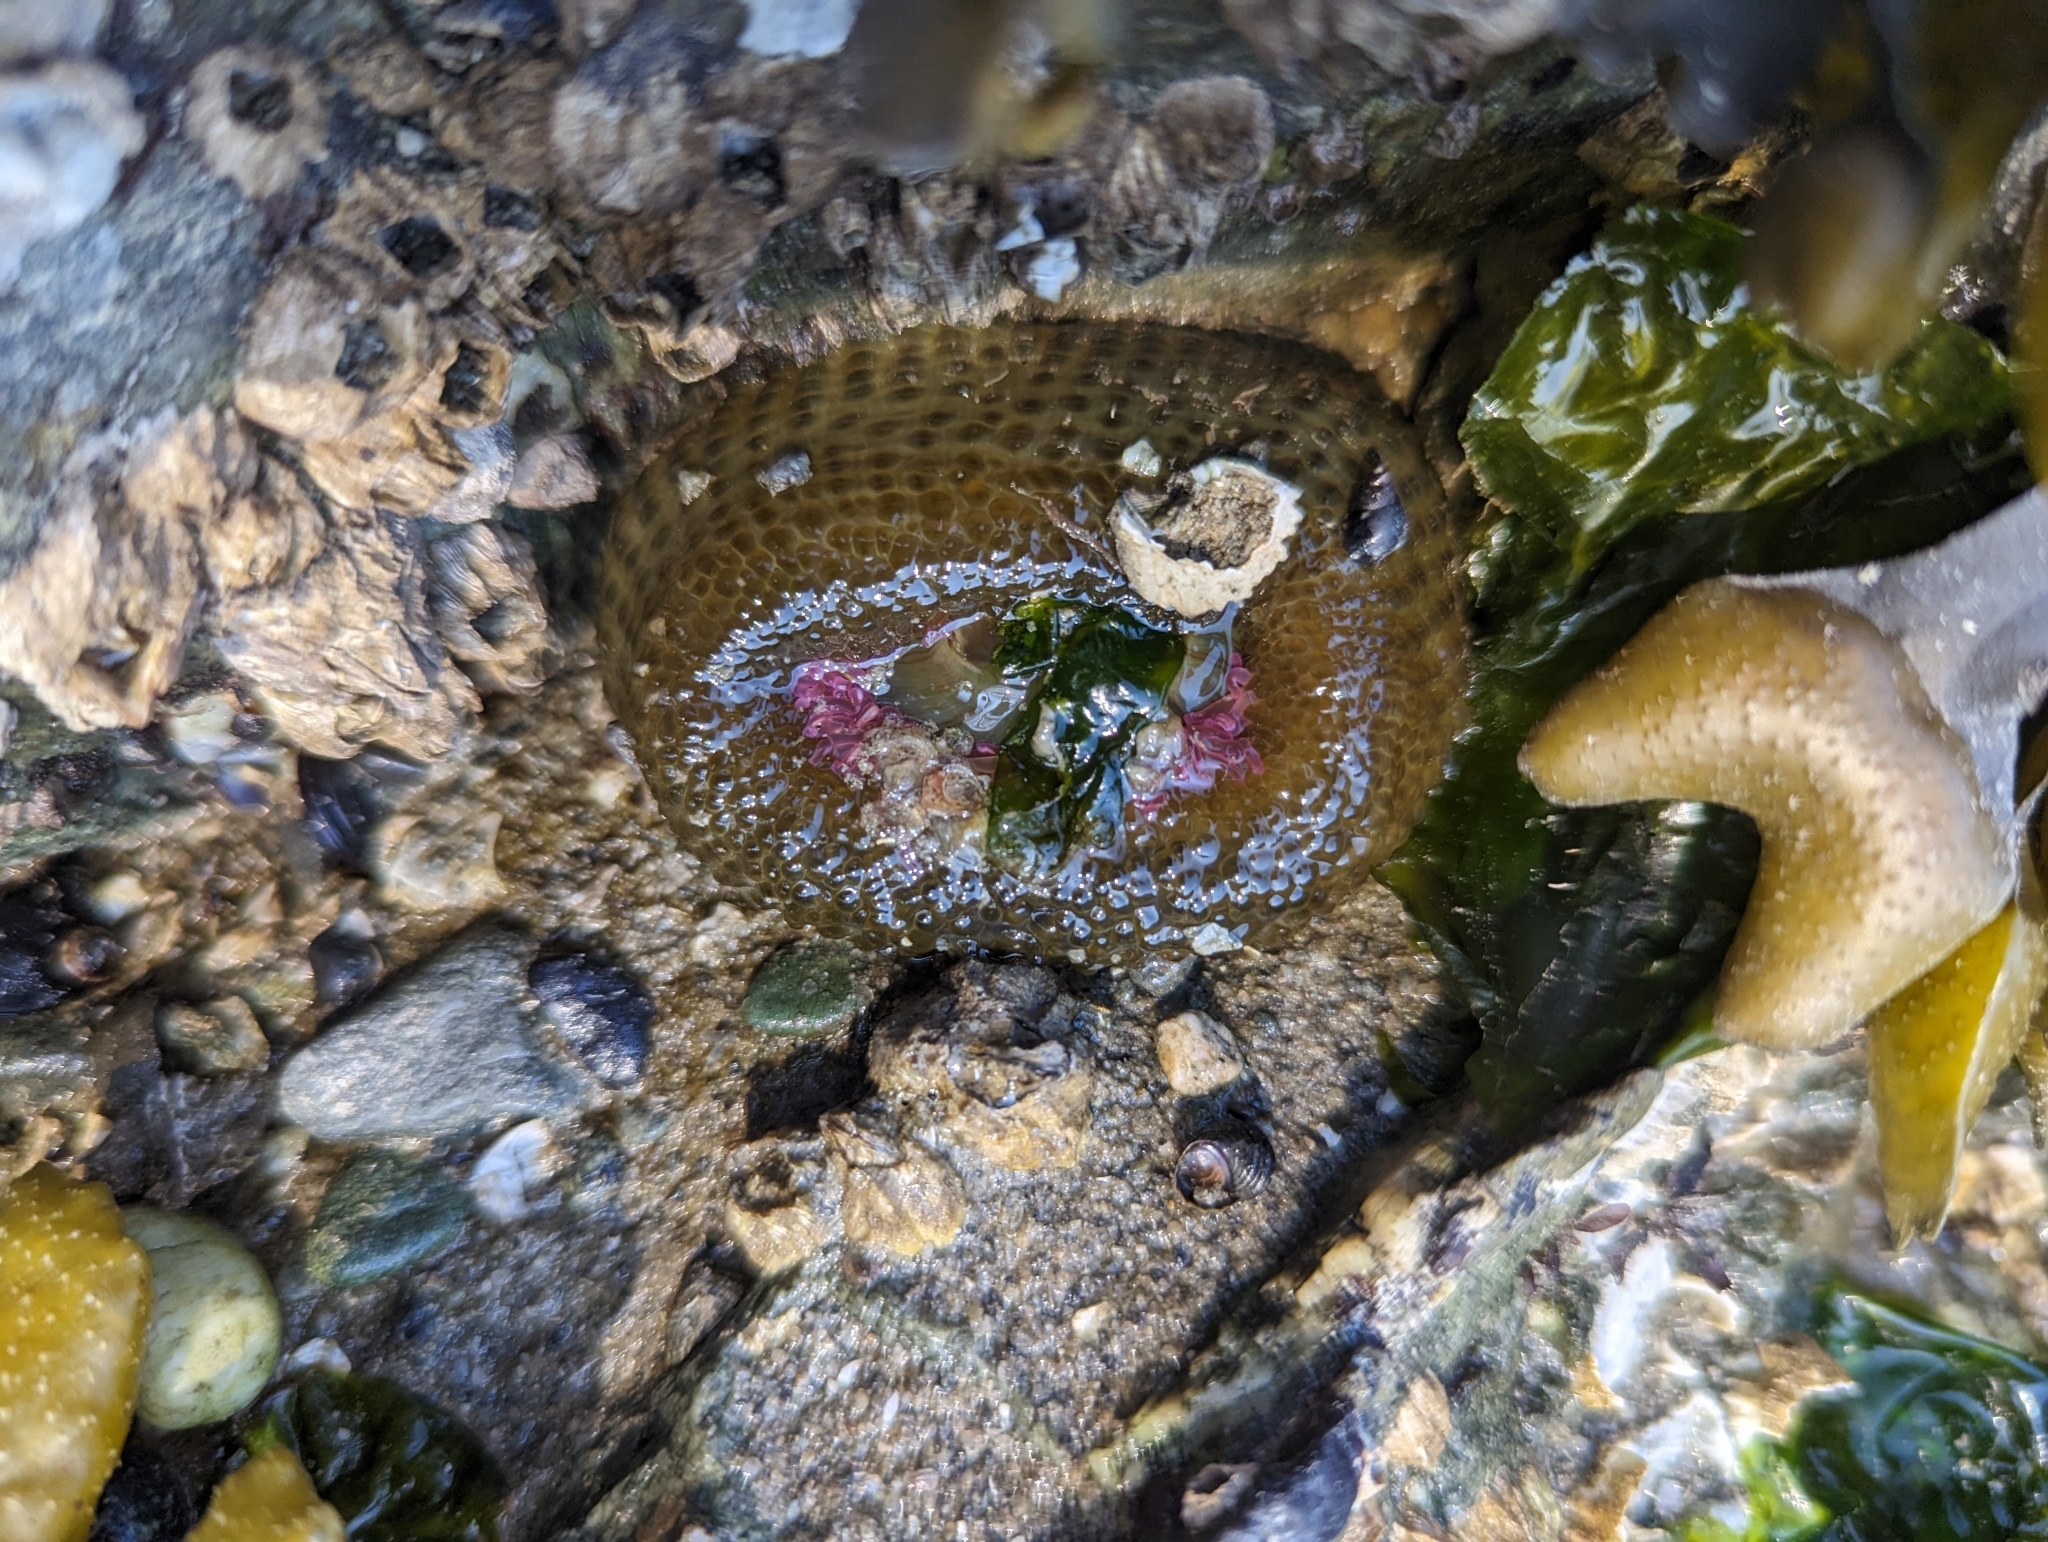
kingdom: Animalia
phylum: Cnidaria
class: Anthozoa
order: Actiniaria
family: Actiniidae
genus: Anthopleura
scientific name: Anthopleura elegantissima
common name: Clonal anemone
